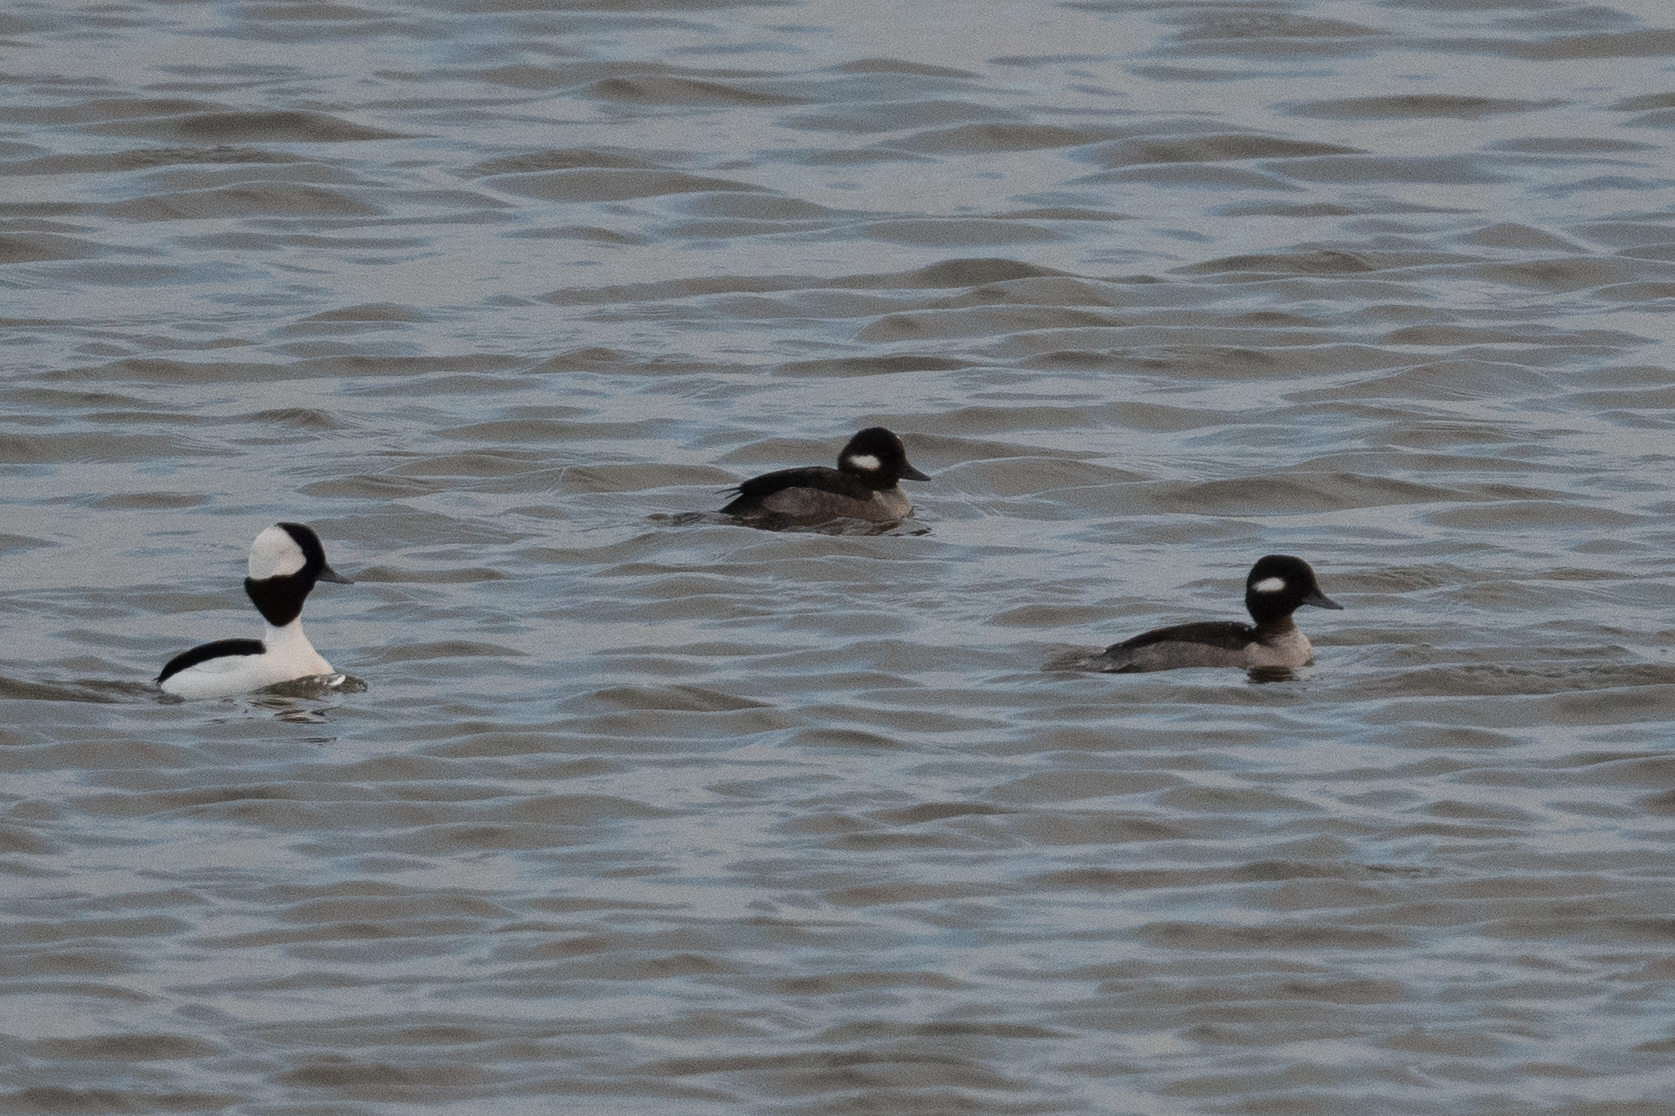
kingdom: Animalia
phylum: Chordata
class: Aves
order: Anseriformes
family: Anatidae
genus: Bucephala
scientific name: Bucephala albeola
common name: Bufflehead
